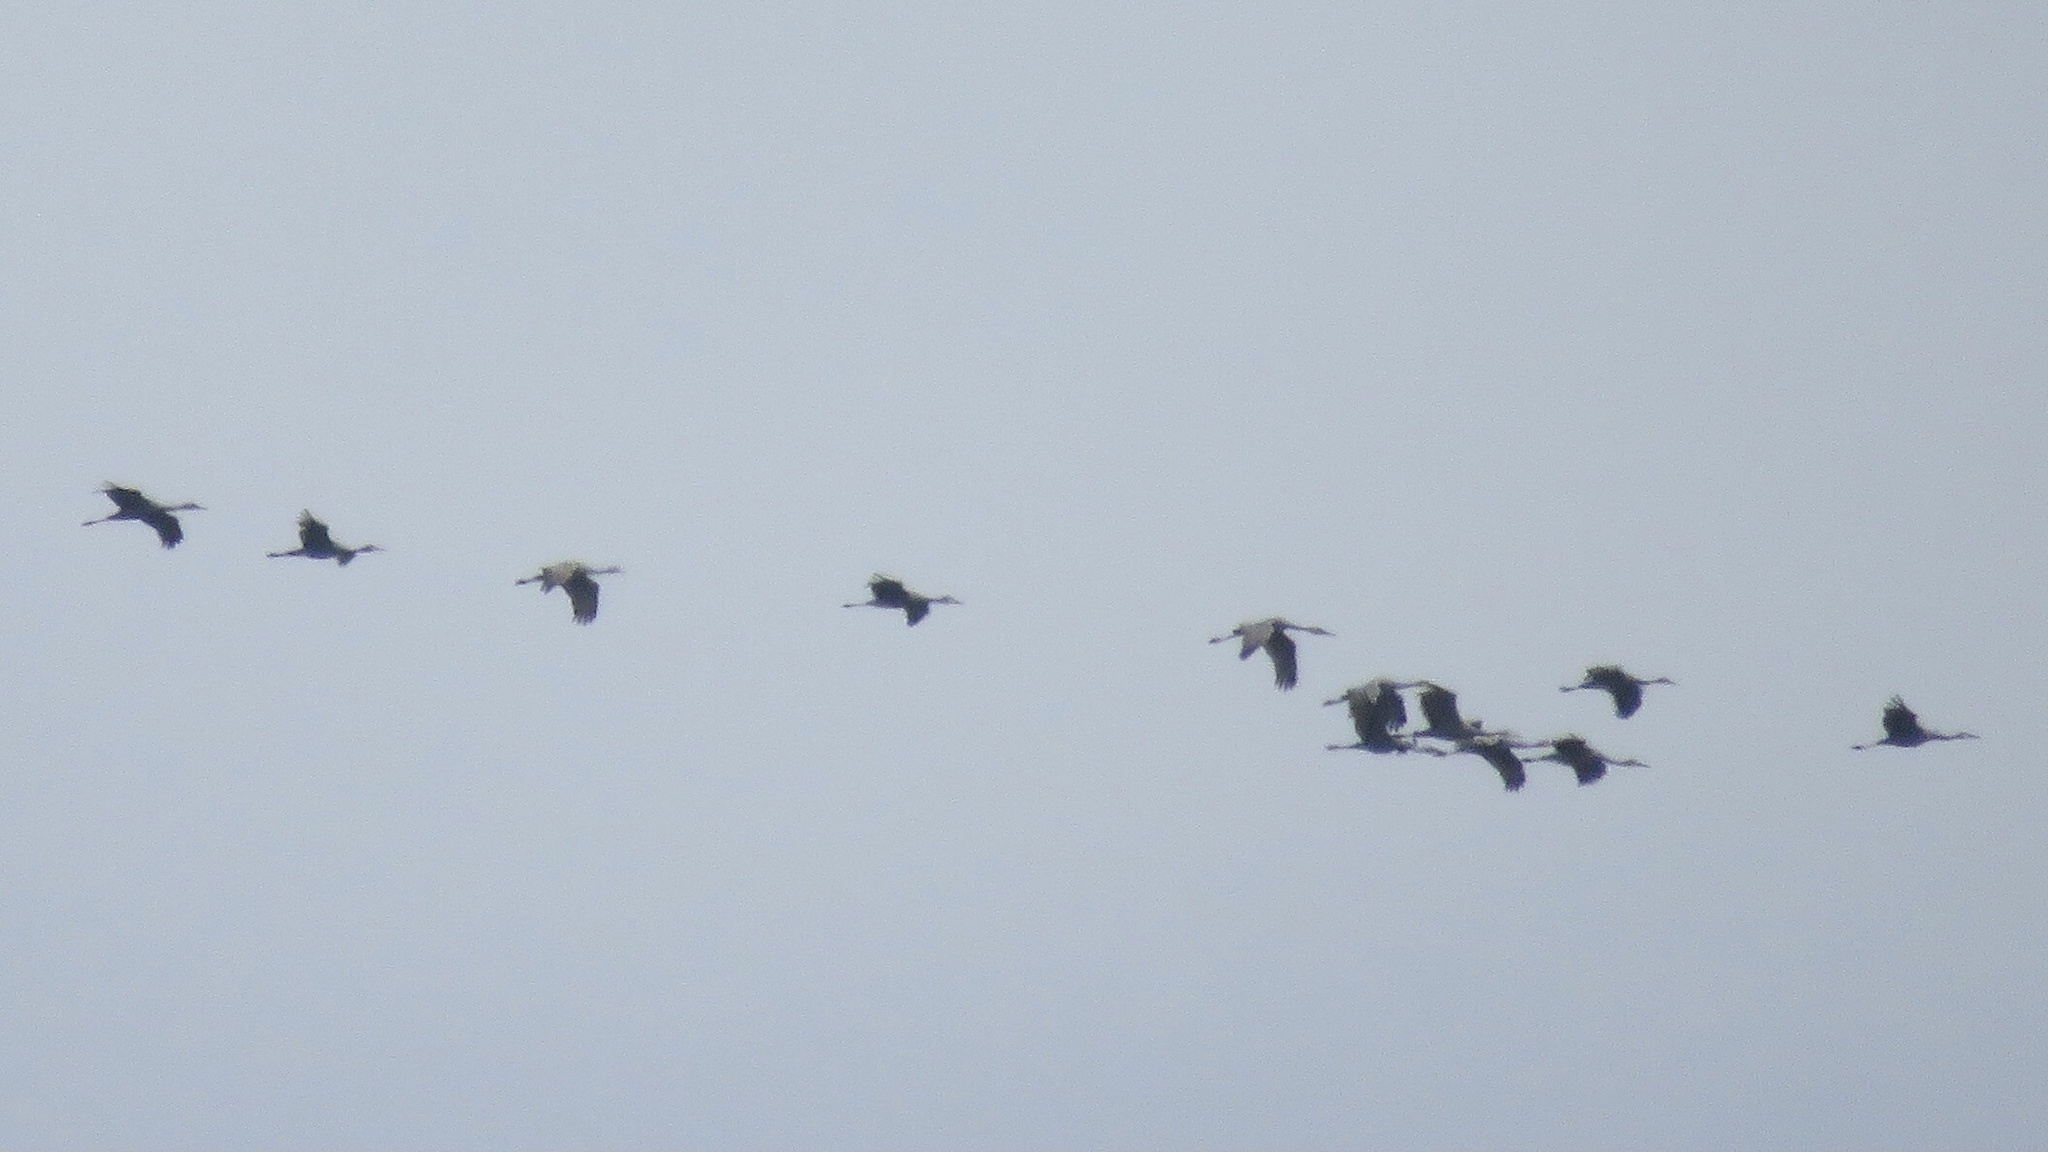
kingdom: Animalia
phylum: Chordata
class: Aves
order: Gruiformes
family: Gruidae
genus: Grus
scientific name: Grus canadensis
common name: Sandhill crane
